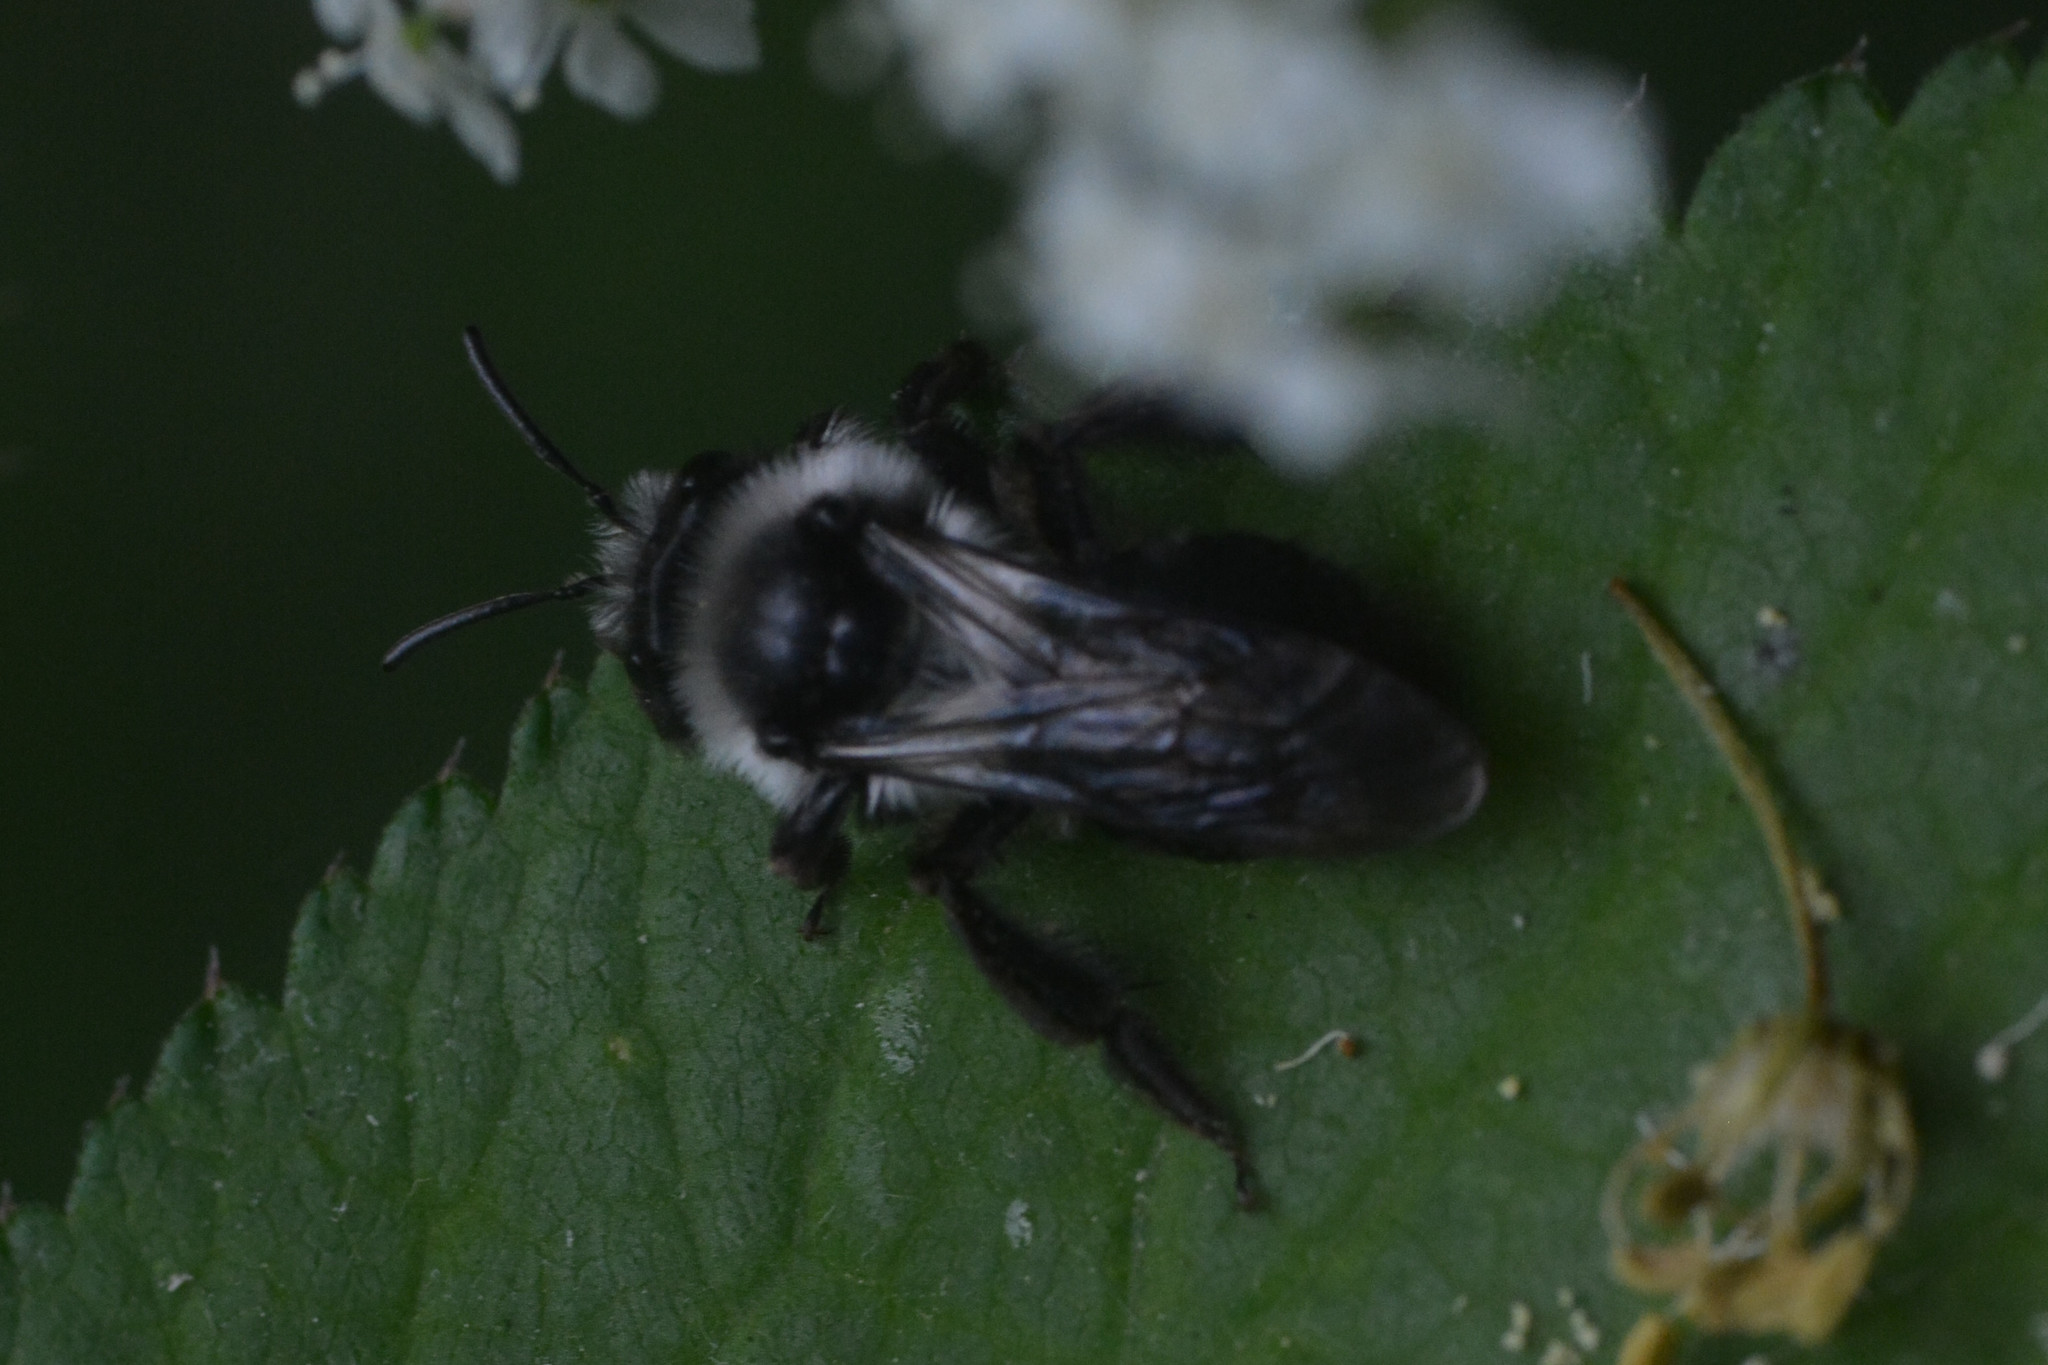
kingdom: Animalia
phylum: Arthropoda
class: Insecta
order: Hymenoptera
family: Andrenidae
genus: Andrena
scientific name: Andrena cineraria
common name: Ashy mining bee
